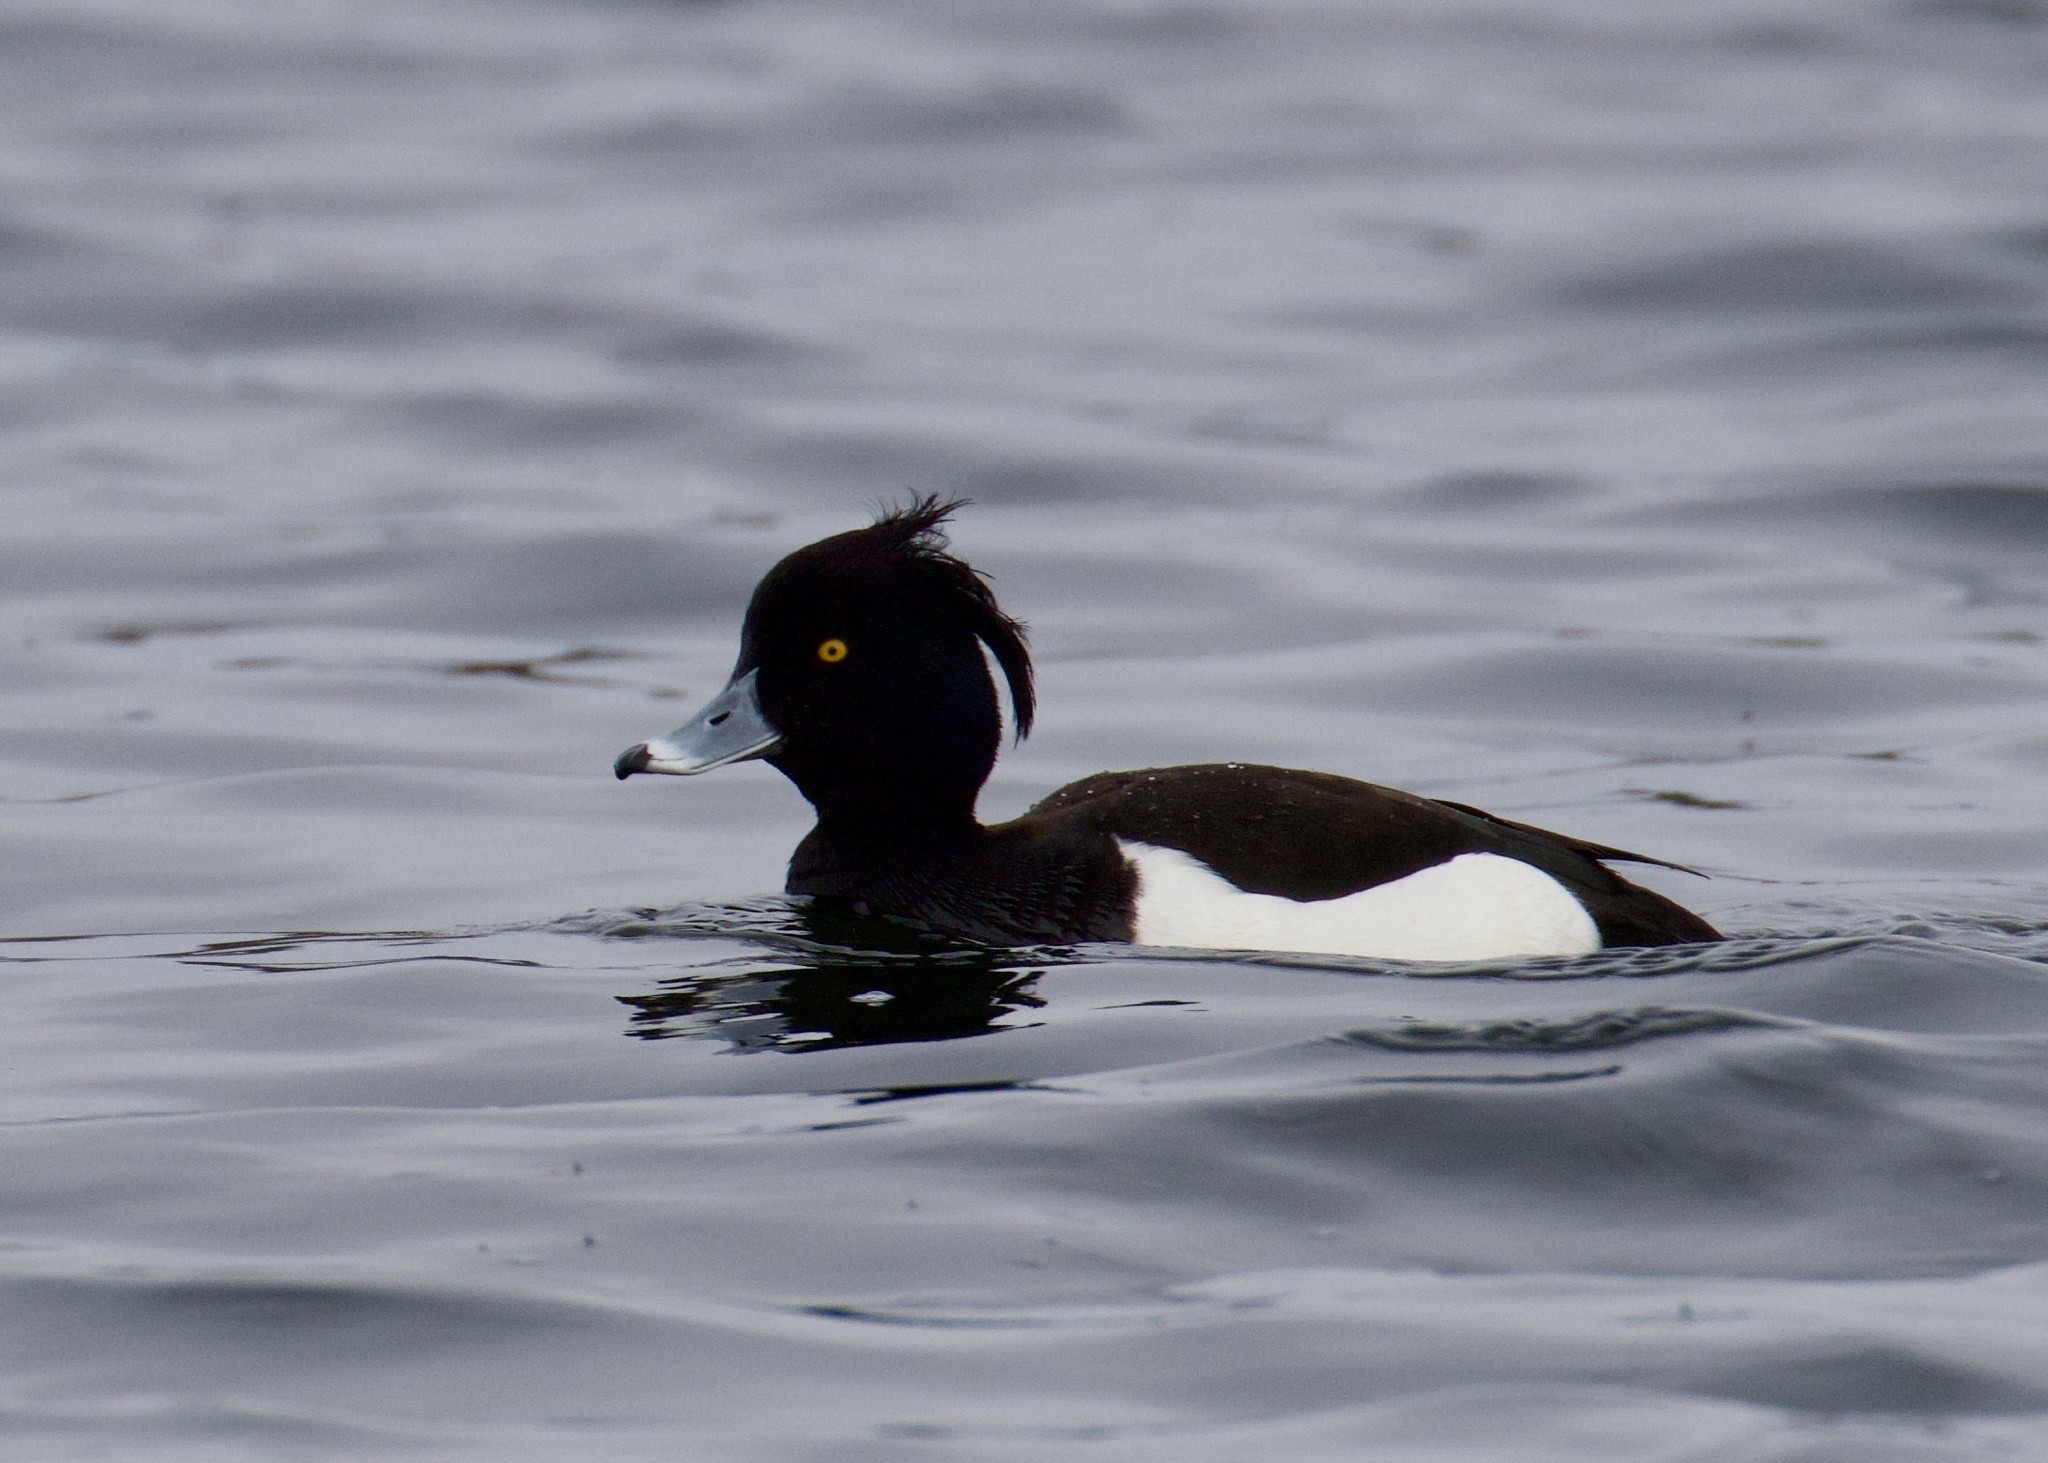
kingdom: Animalia
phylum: Chordata
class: Aves
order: Anseriformes
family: Anatidae
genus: Aythya
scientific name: Aythya fuligula
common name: Tufted duck
